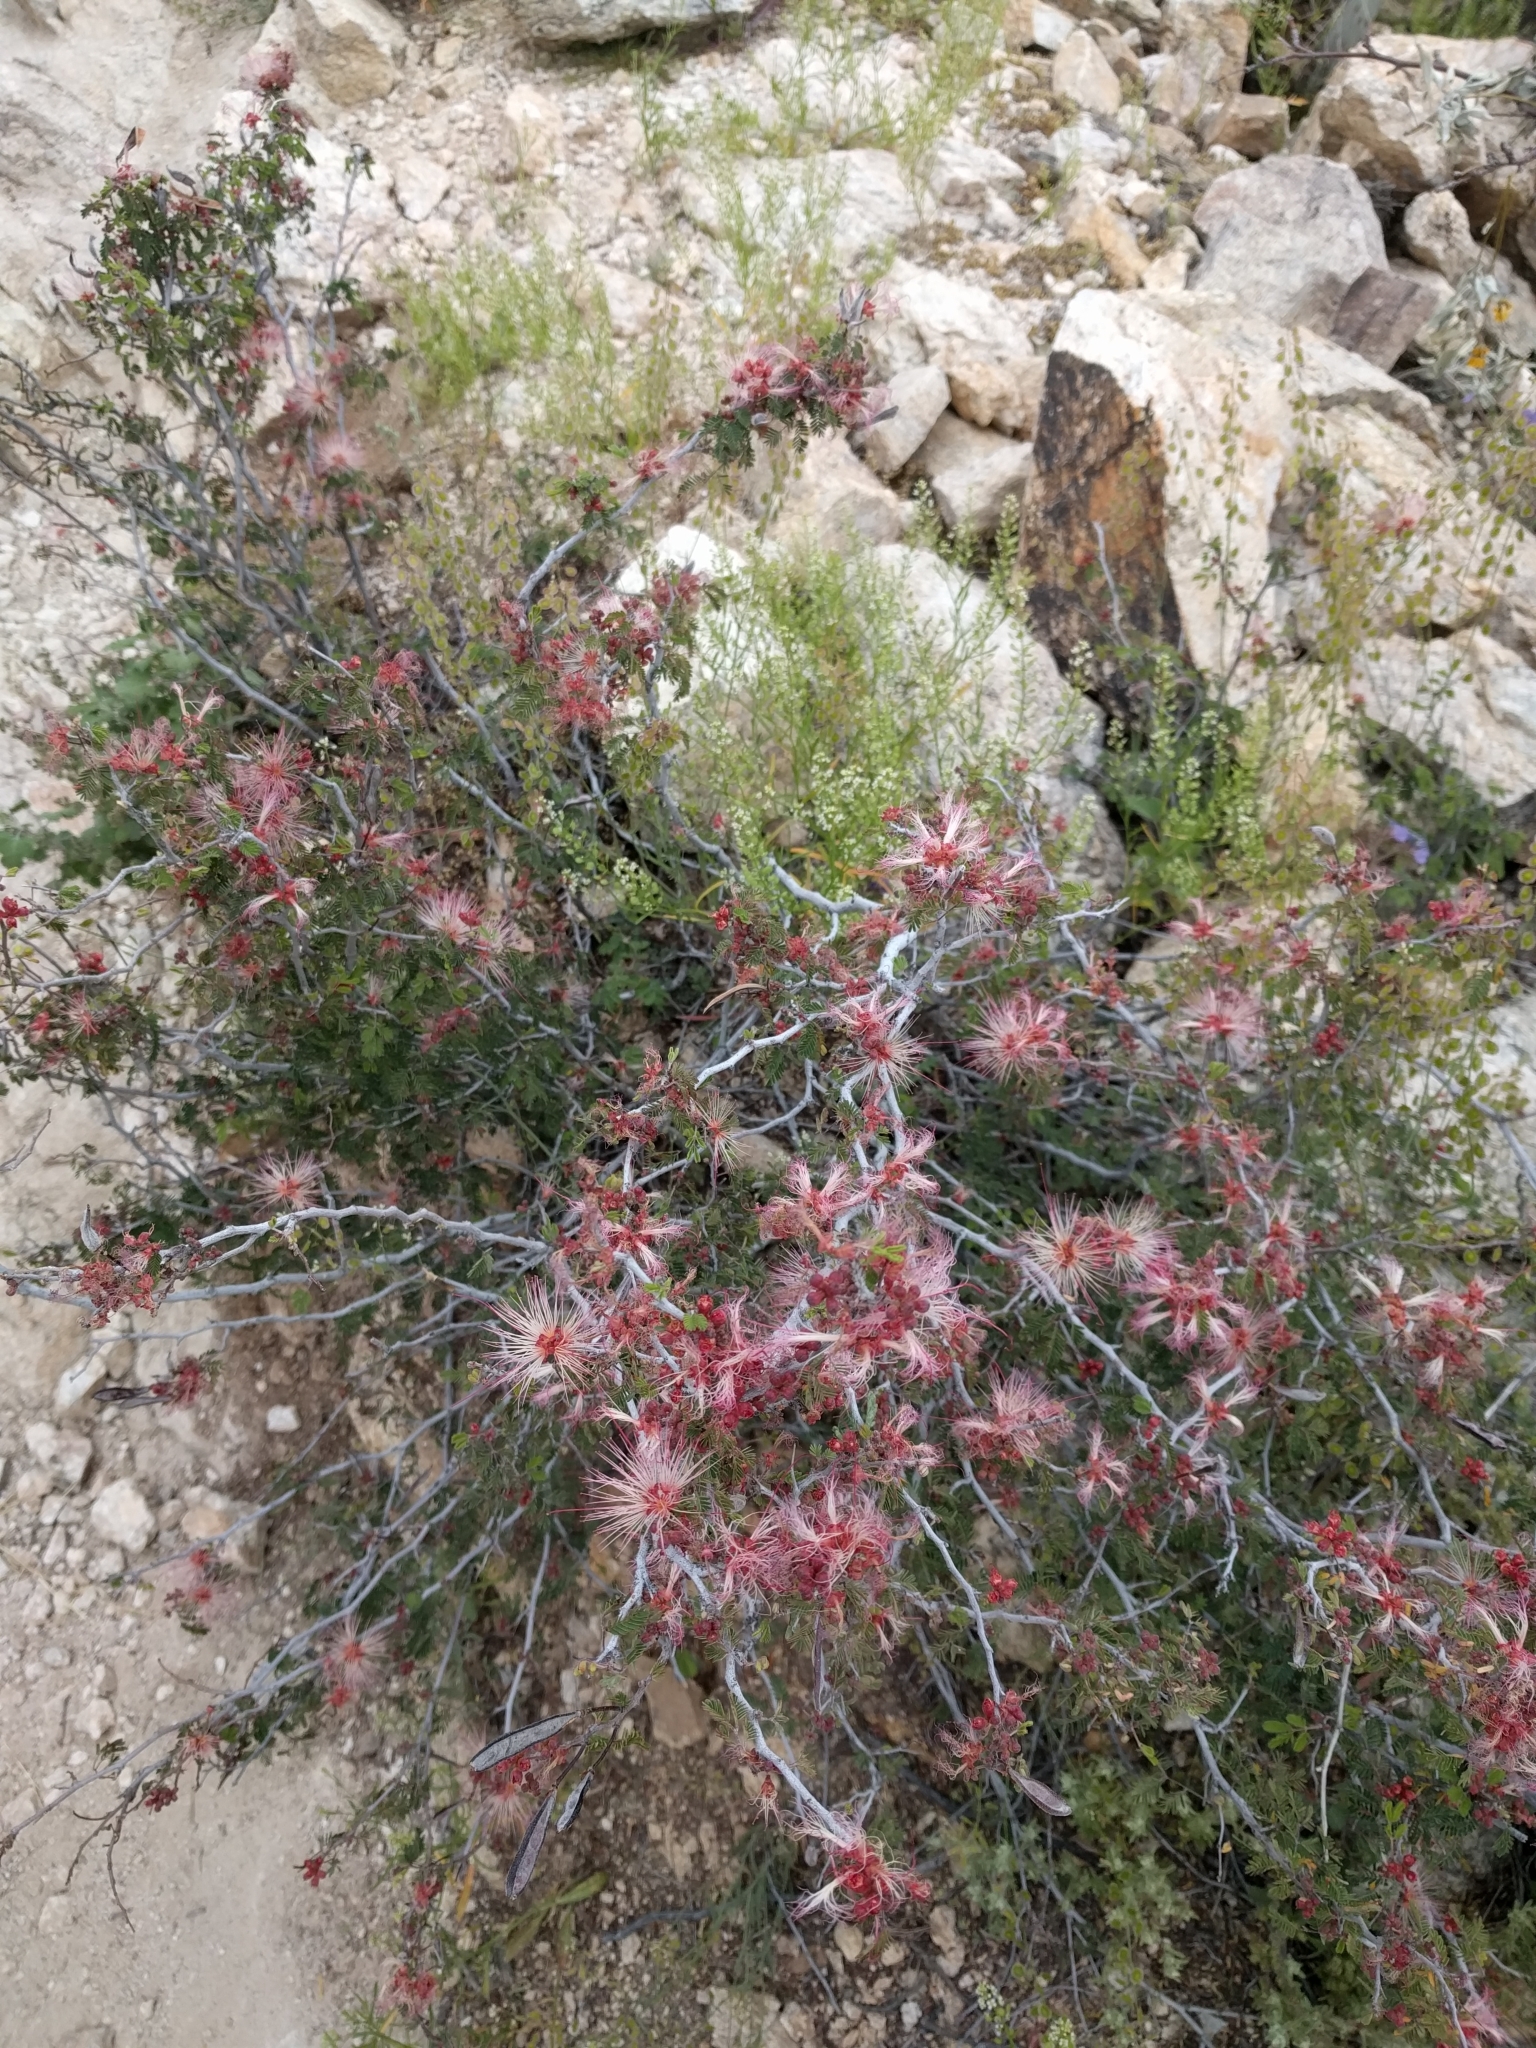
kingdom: Plantae
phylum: Tracheophyta
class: Magnoliopsida
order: Fabales
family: Fabaceae
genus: Calliandra
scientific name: Calliandra eriophylla
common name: Fairy-duster
